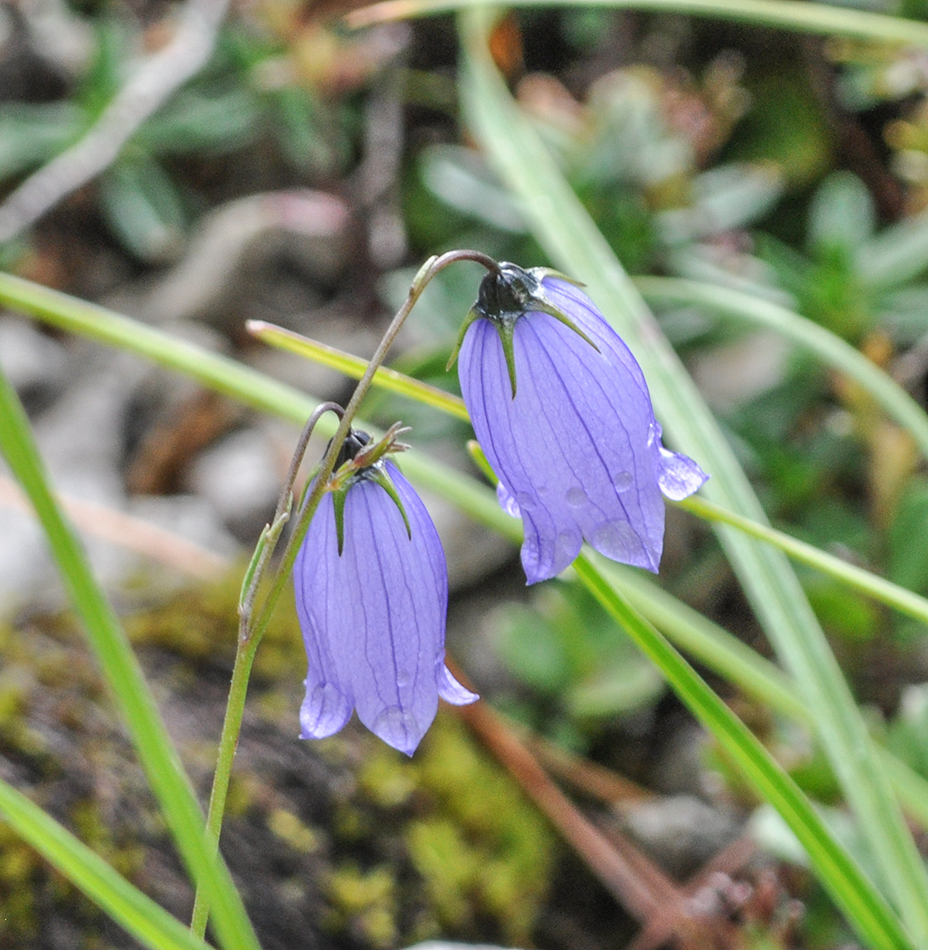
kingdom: Plantae
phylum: Tracheophyta
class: Magnoliopsida
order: Asterales
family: Campanulaceae
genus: Campanula
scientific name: Campanula cespitosa
